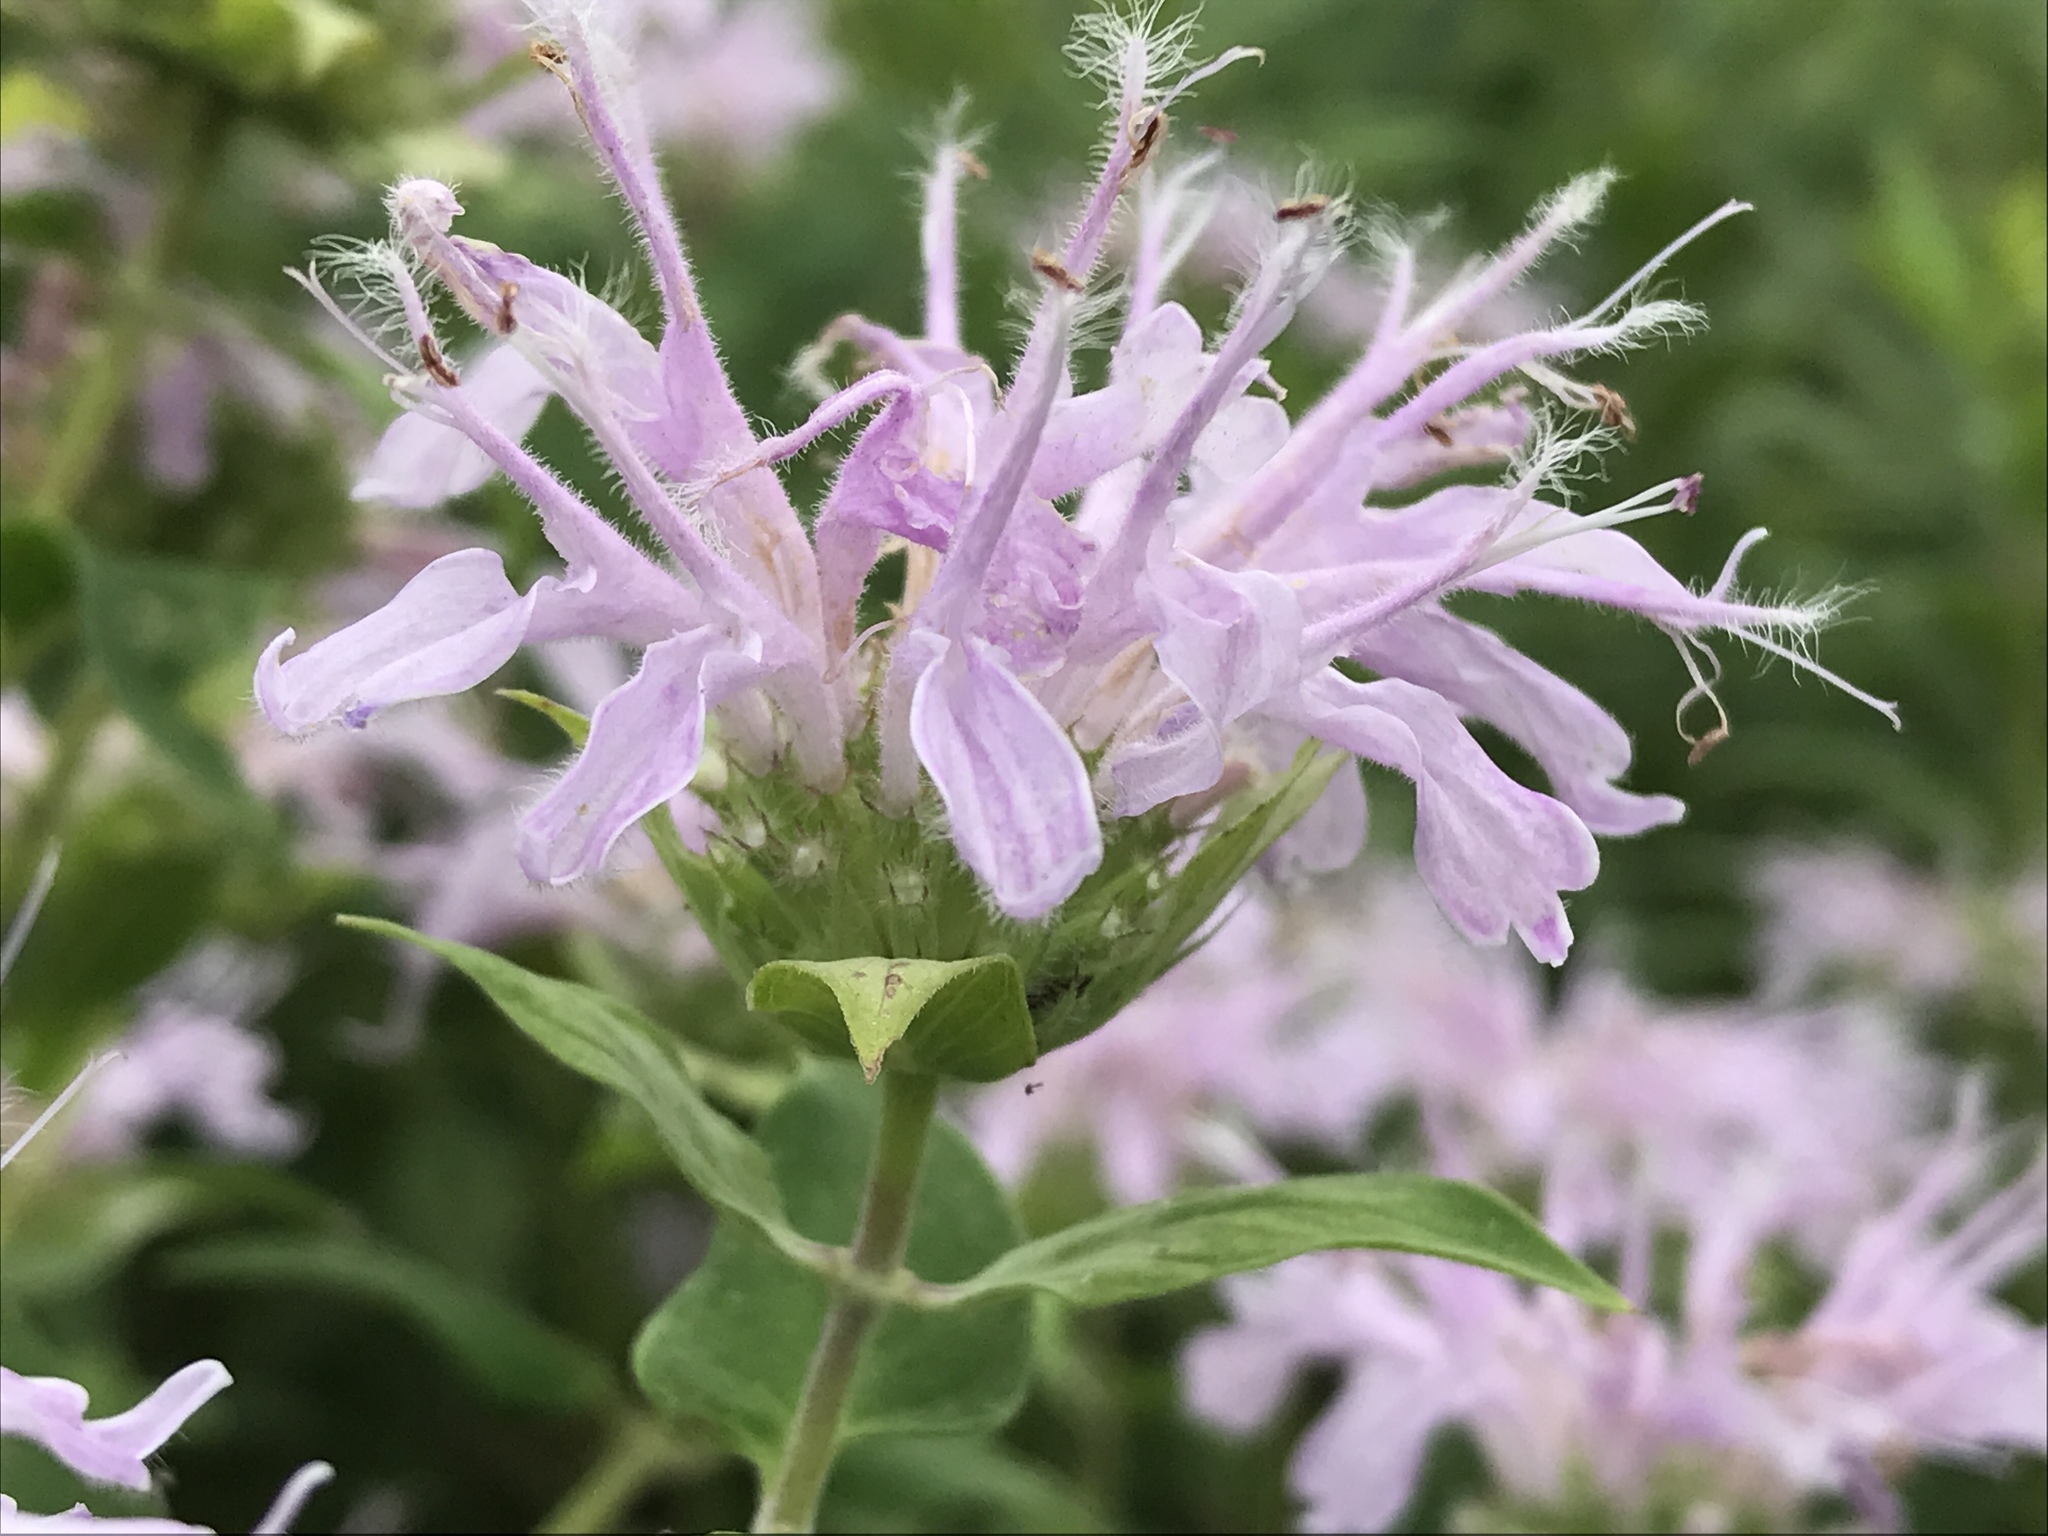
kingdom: Plantae
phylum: Tracheophyta
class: Magnoliopsida
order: Lamiales
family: Lamiaceae
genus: Monarda
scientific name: Monarda fistulosa
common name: Purple beebalm
